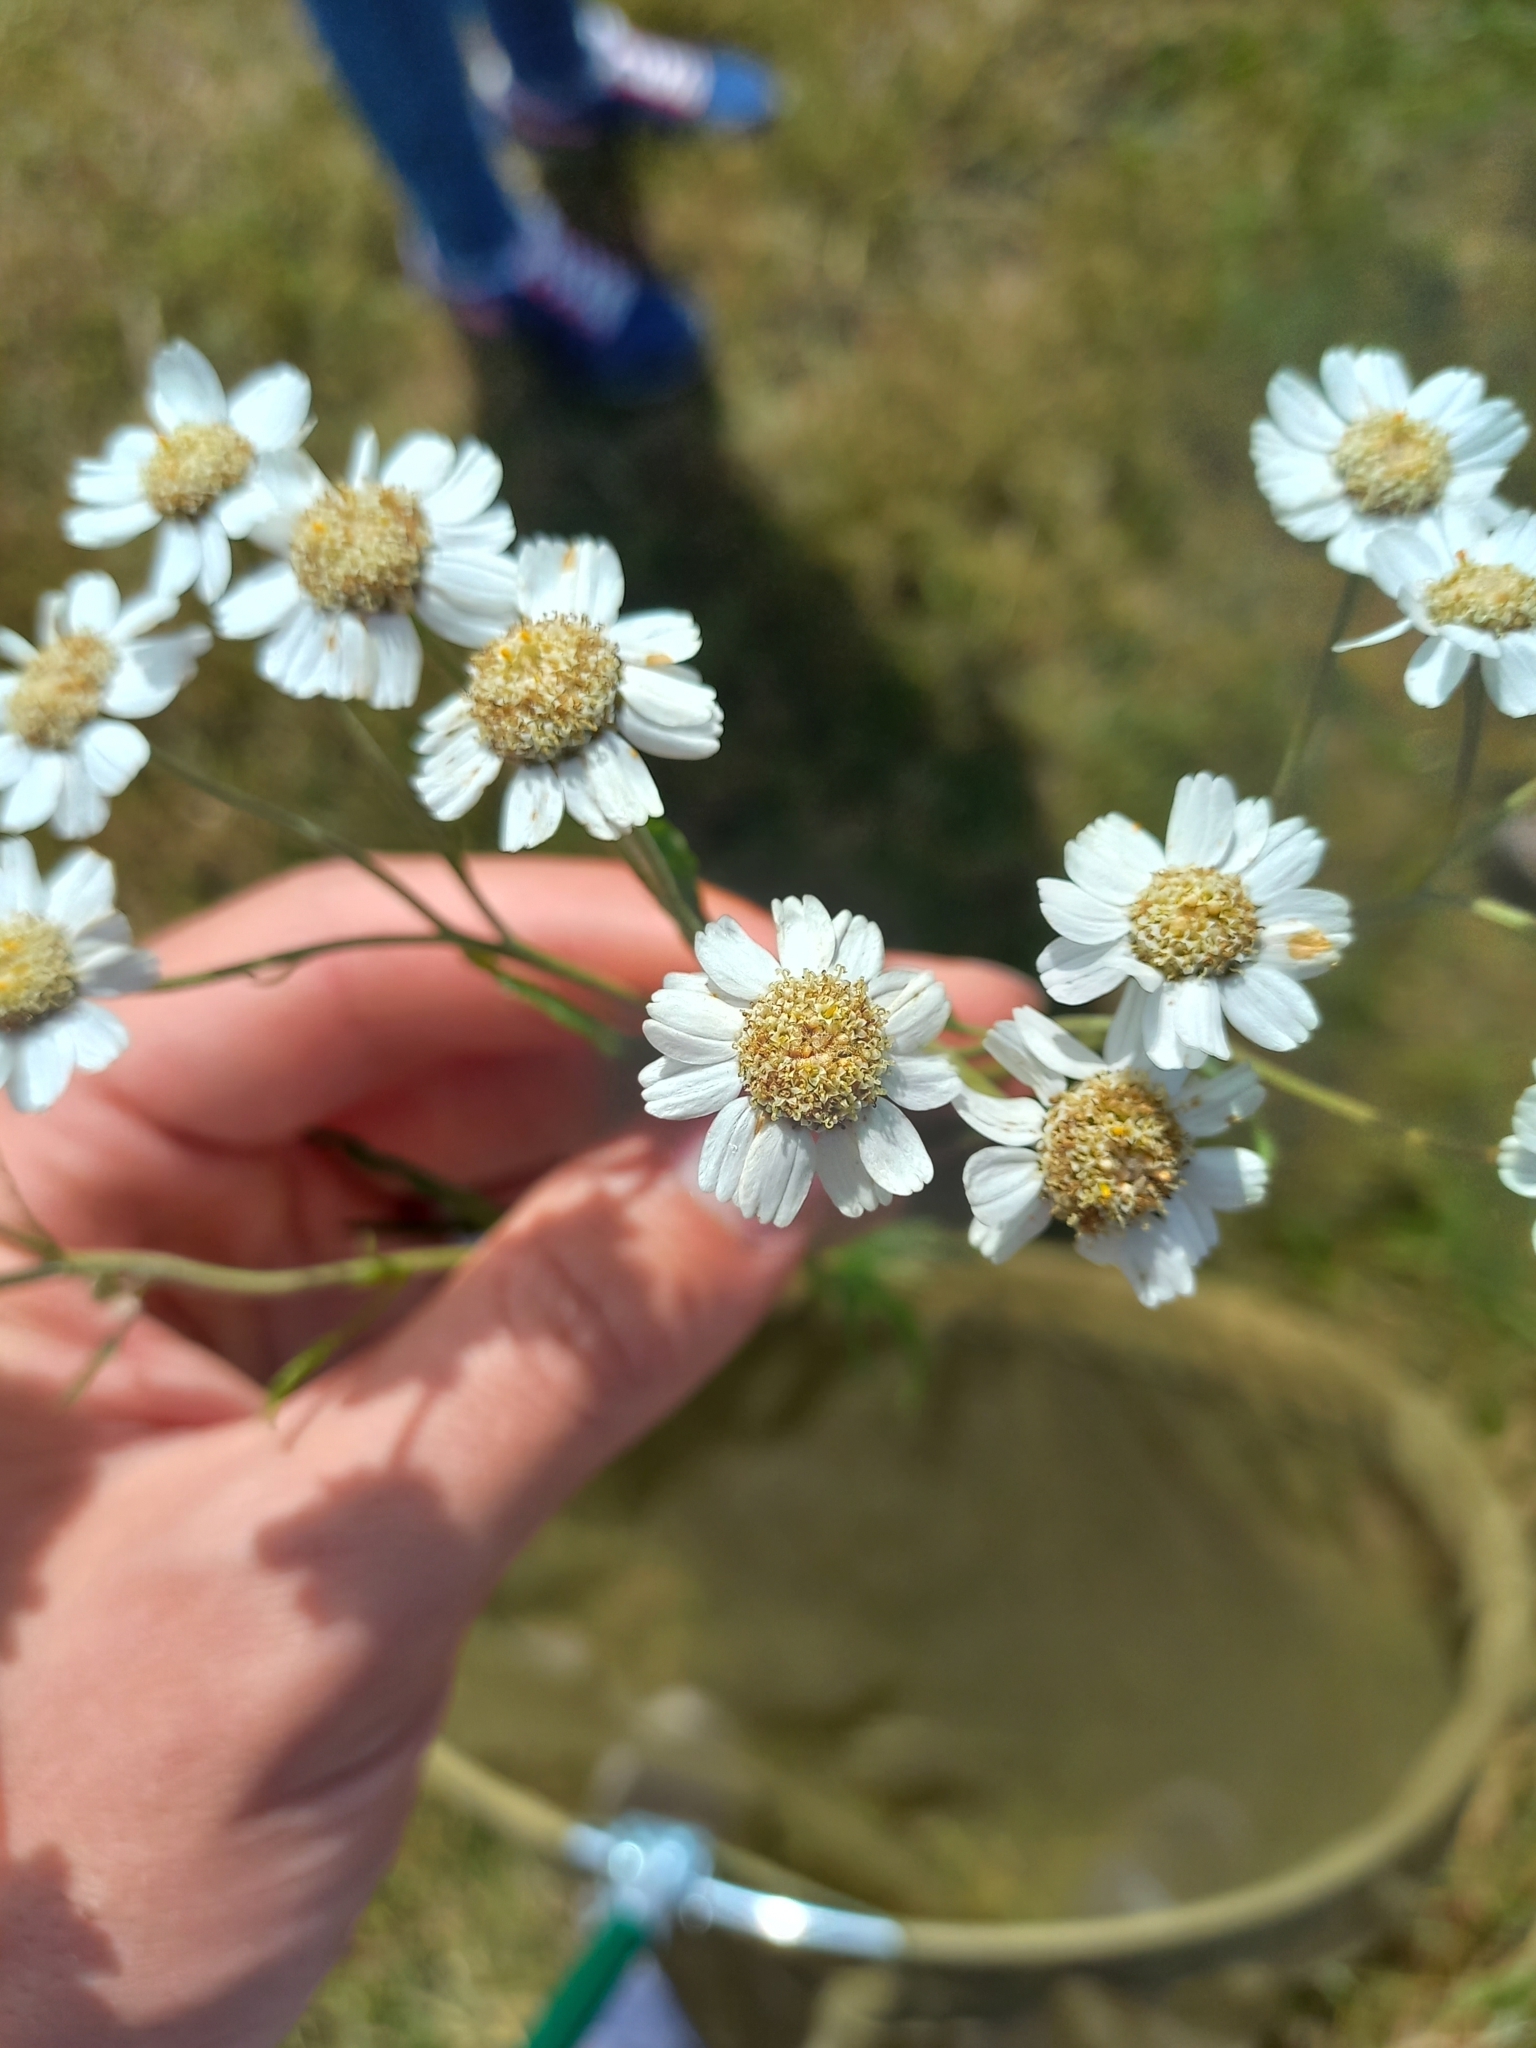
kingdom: Plantae
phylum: Tracheophyta
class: Magnoliopsida
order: Asterales
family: Asteraceae
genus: Achillea
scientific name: Achillea ptarmica
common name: Sneezeweed
